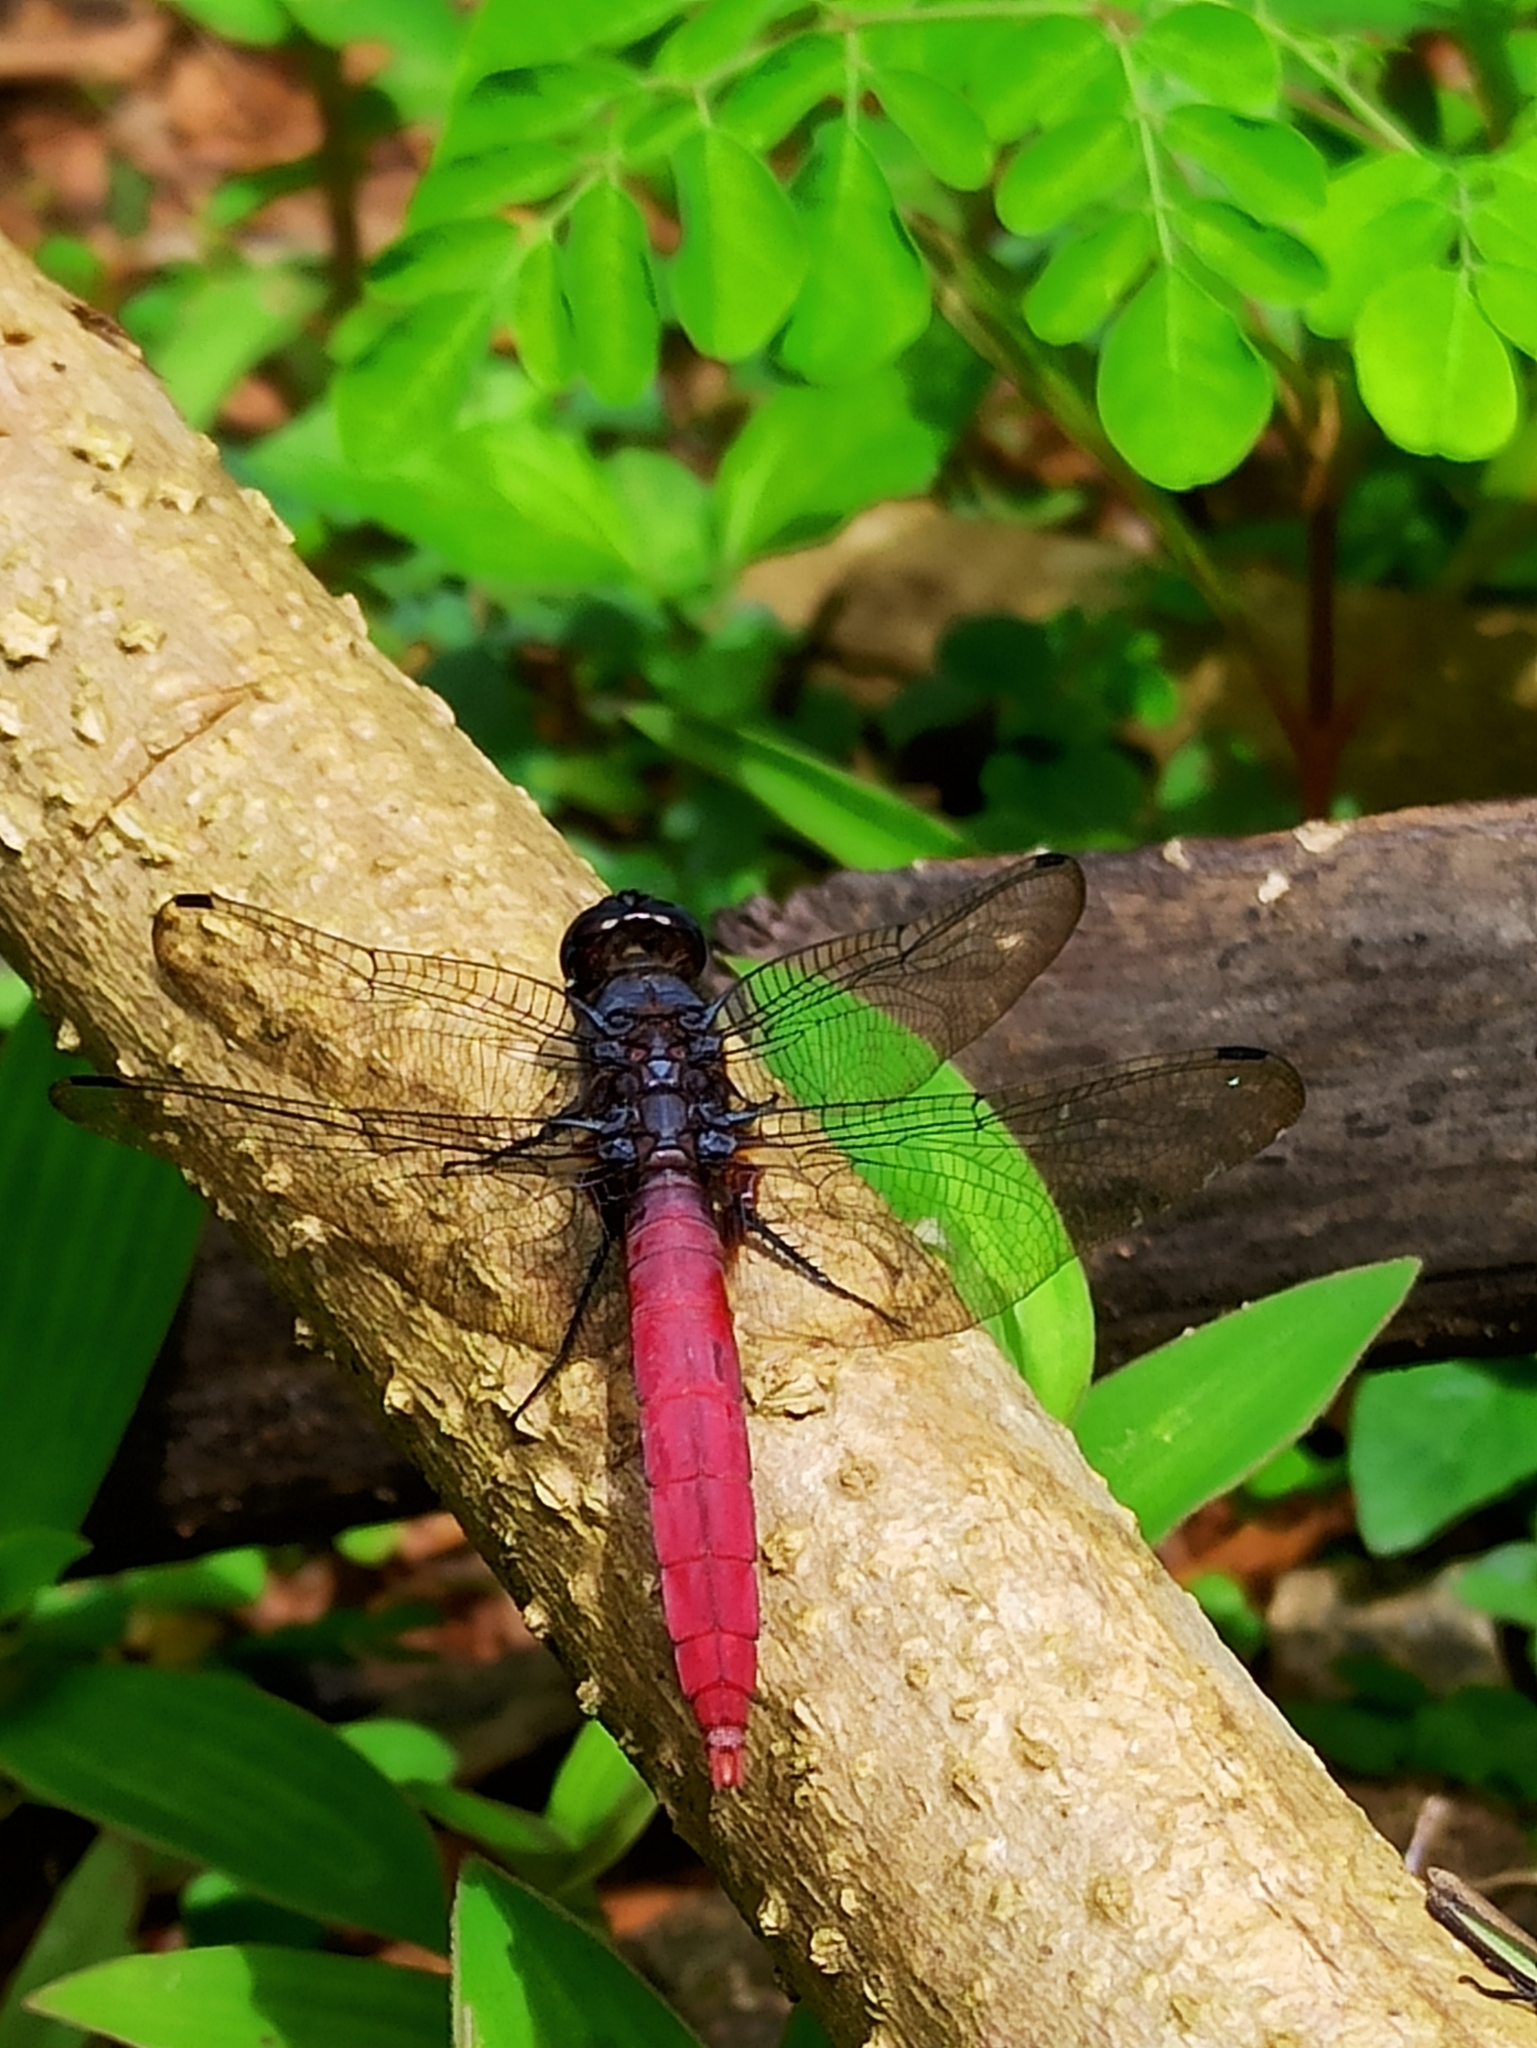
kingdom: Animalia
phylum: Arthropoda
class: Insecta
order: Odonata
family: Libellulidae
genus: Orthetrum
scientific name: Orthetrum pruinosum
